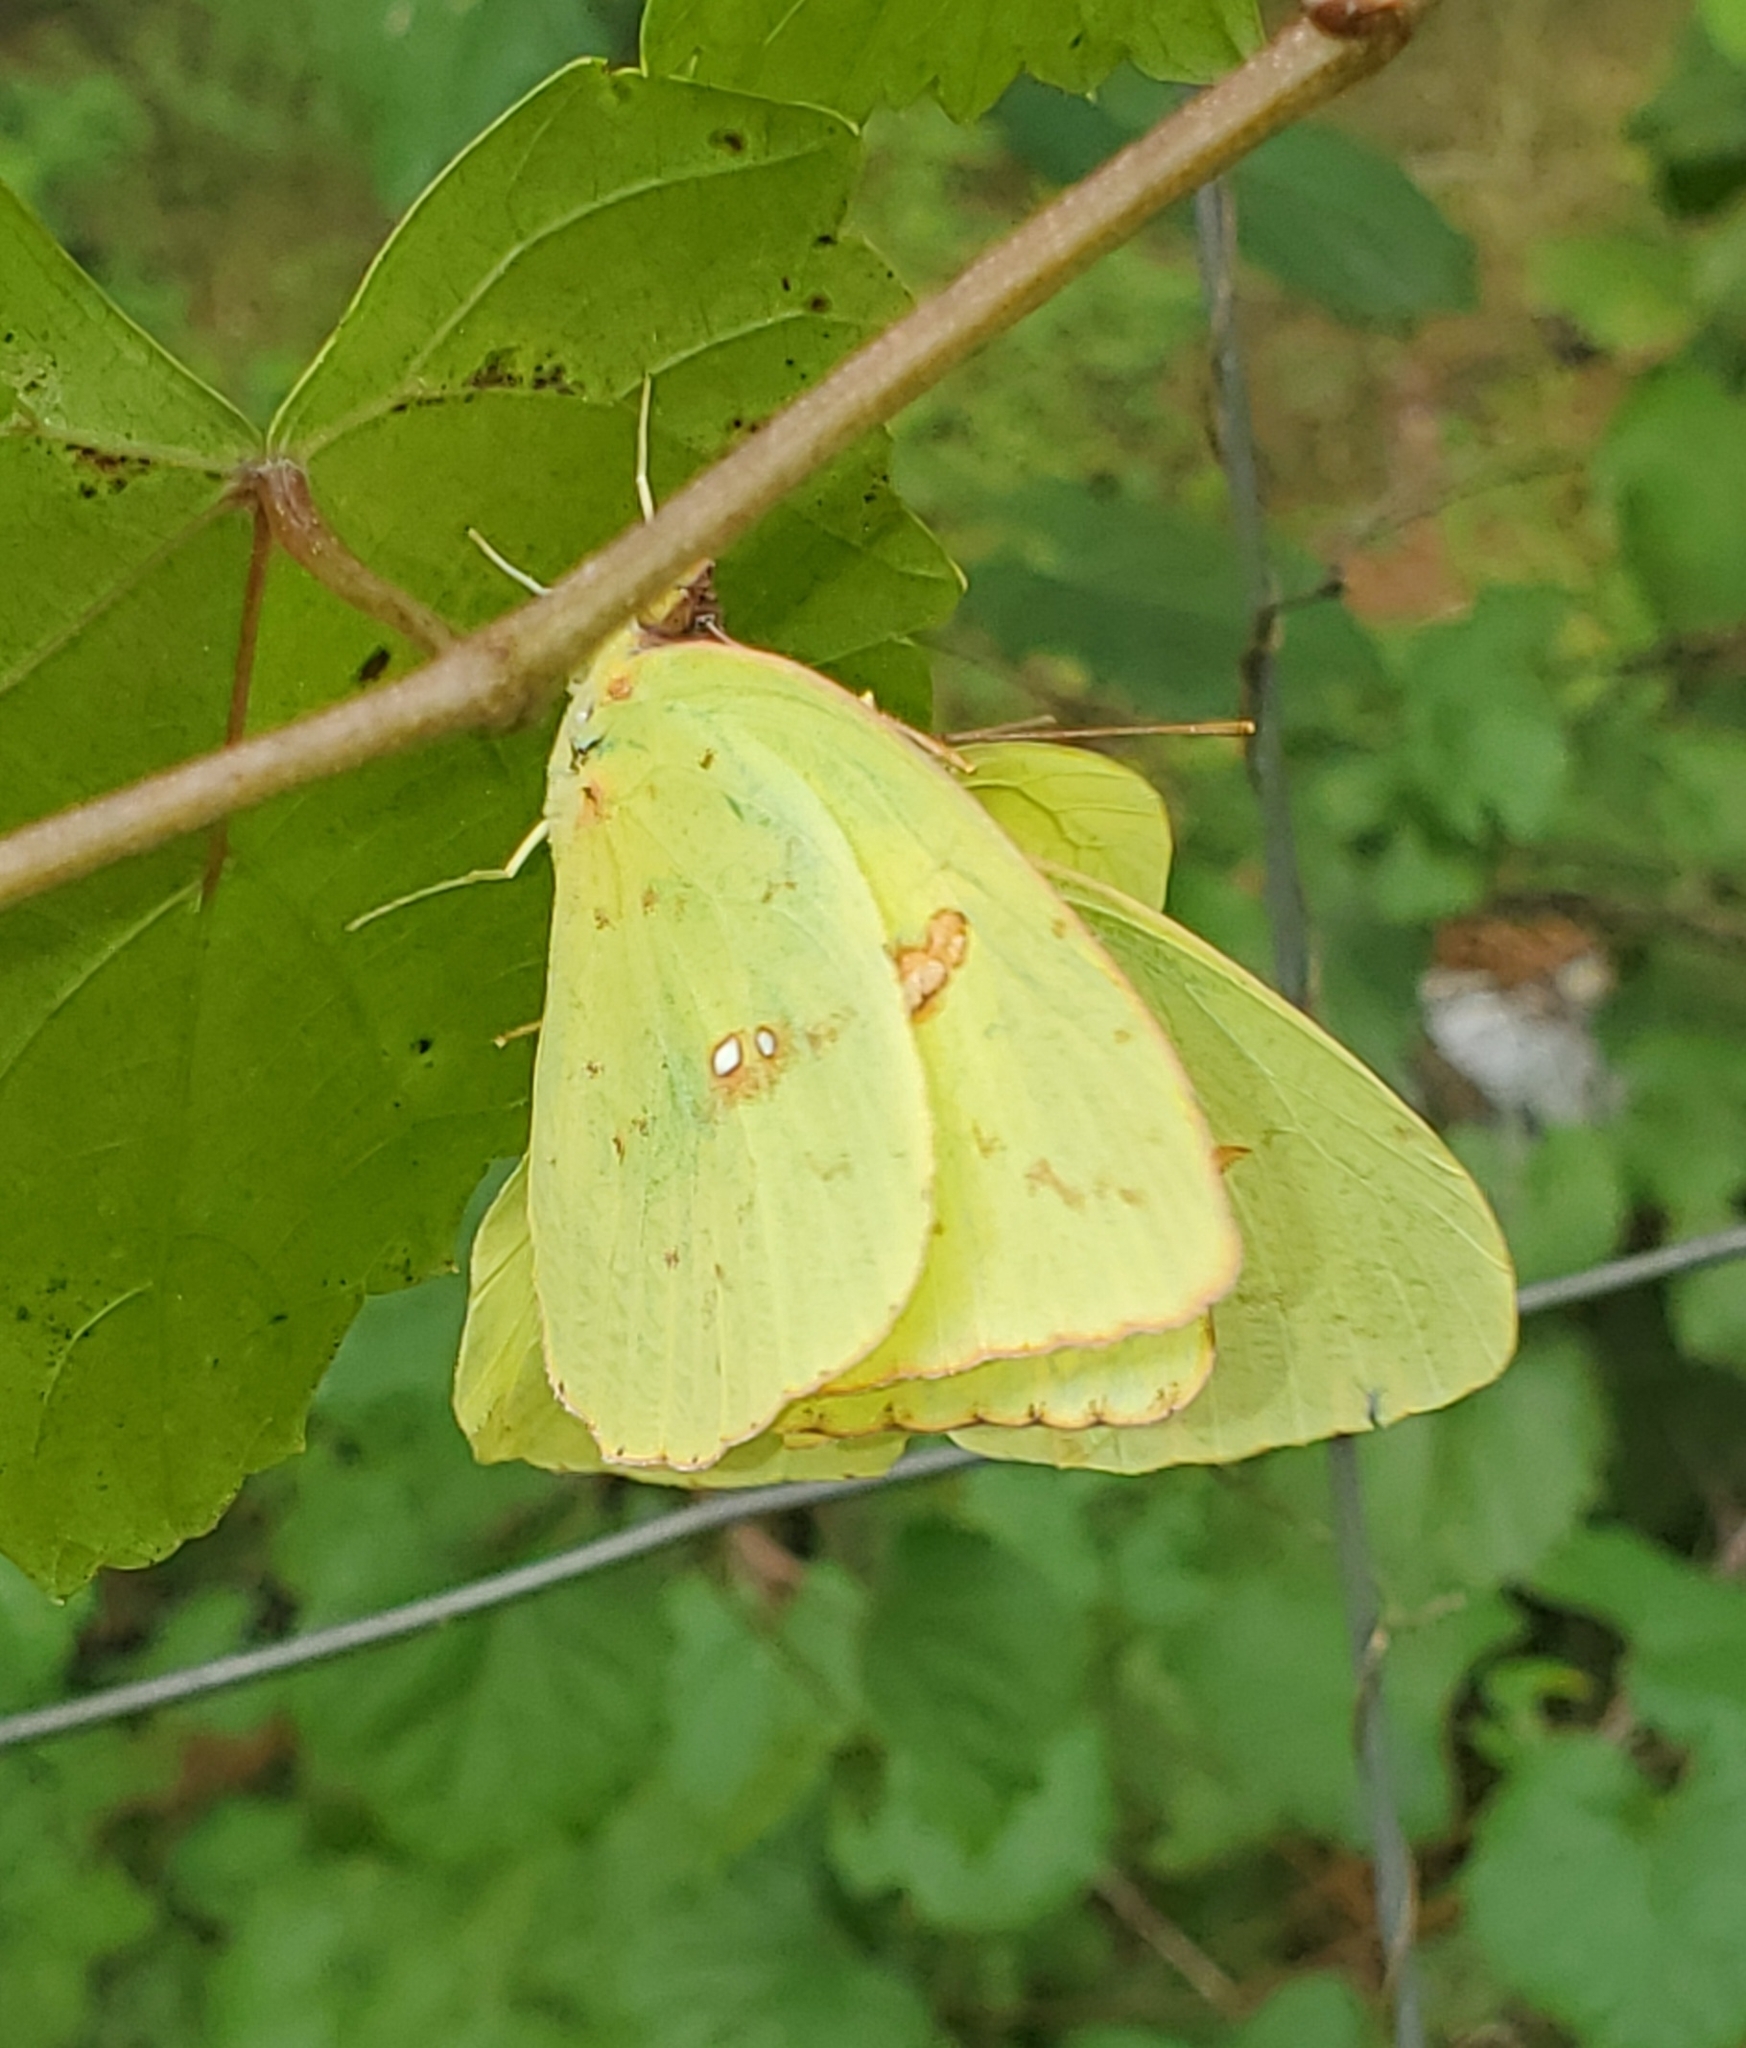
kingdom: Animalia
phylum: Arthropoda
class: Insecta
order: Lepidoptera
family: Pieridae
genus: Phoebis
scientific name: Phoebis sennae
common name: Cloudless sulphur
